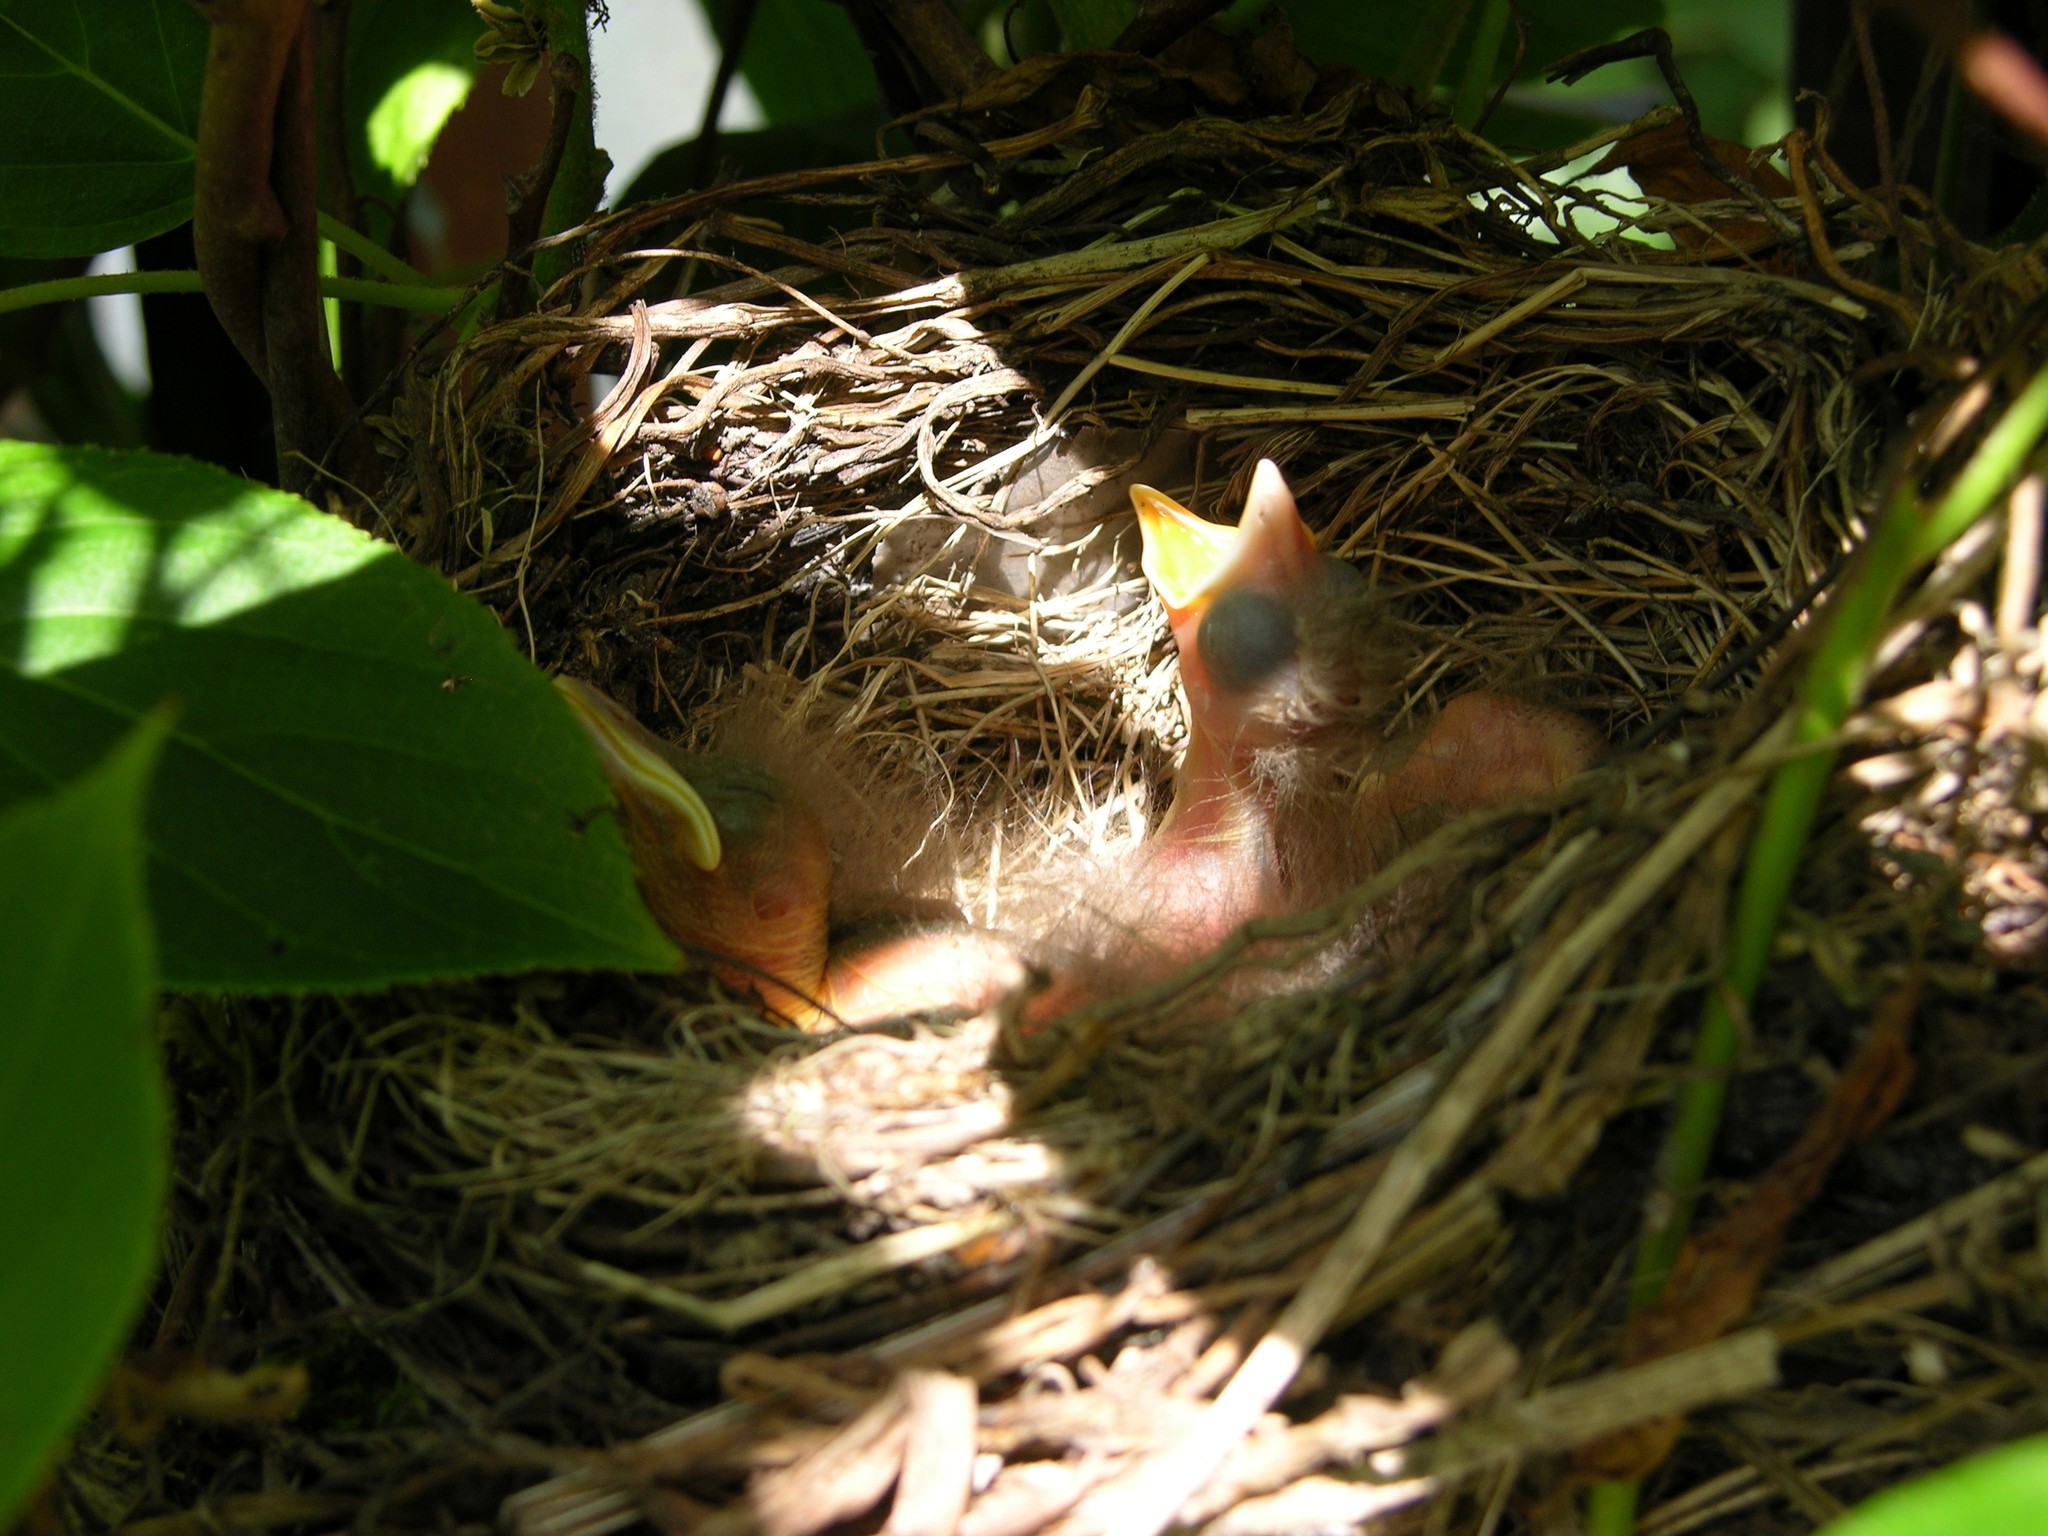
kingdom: Animalia
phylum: Chordata
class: Aves
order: Passeriformes
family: Turdidae
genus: Turdus
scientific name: Turdus merula
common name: Common blackbird
